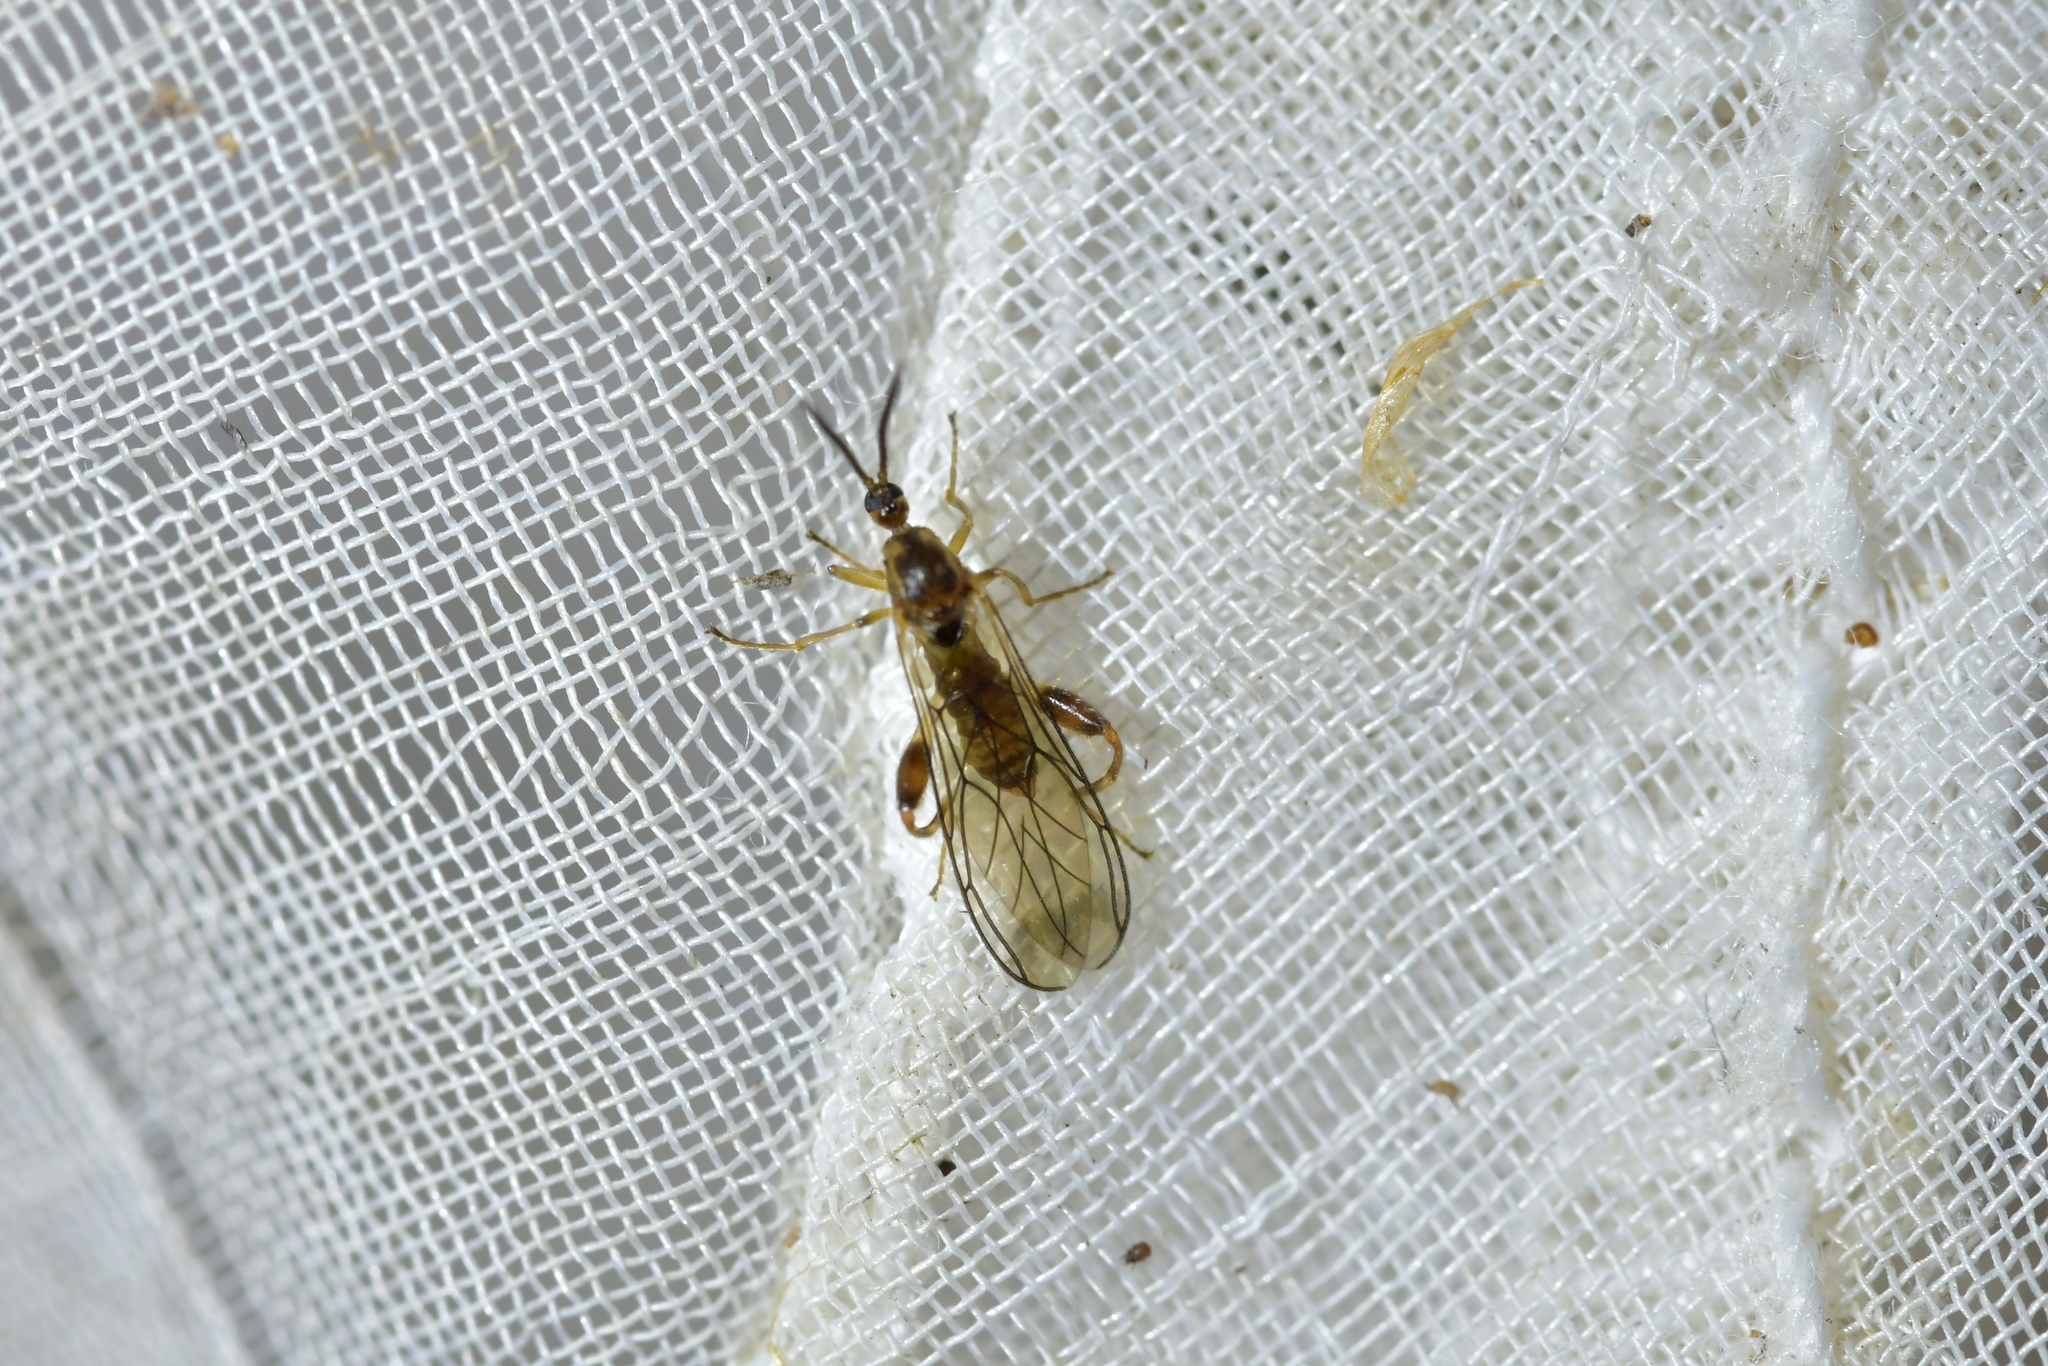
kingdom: Animalia
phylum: Arthropoda
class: Insecta
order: Diptera
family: Canthyloscelididae
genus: Canthyloscelis
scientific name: Canthyloscelis antennata
